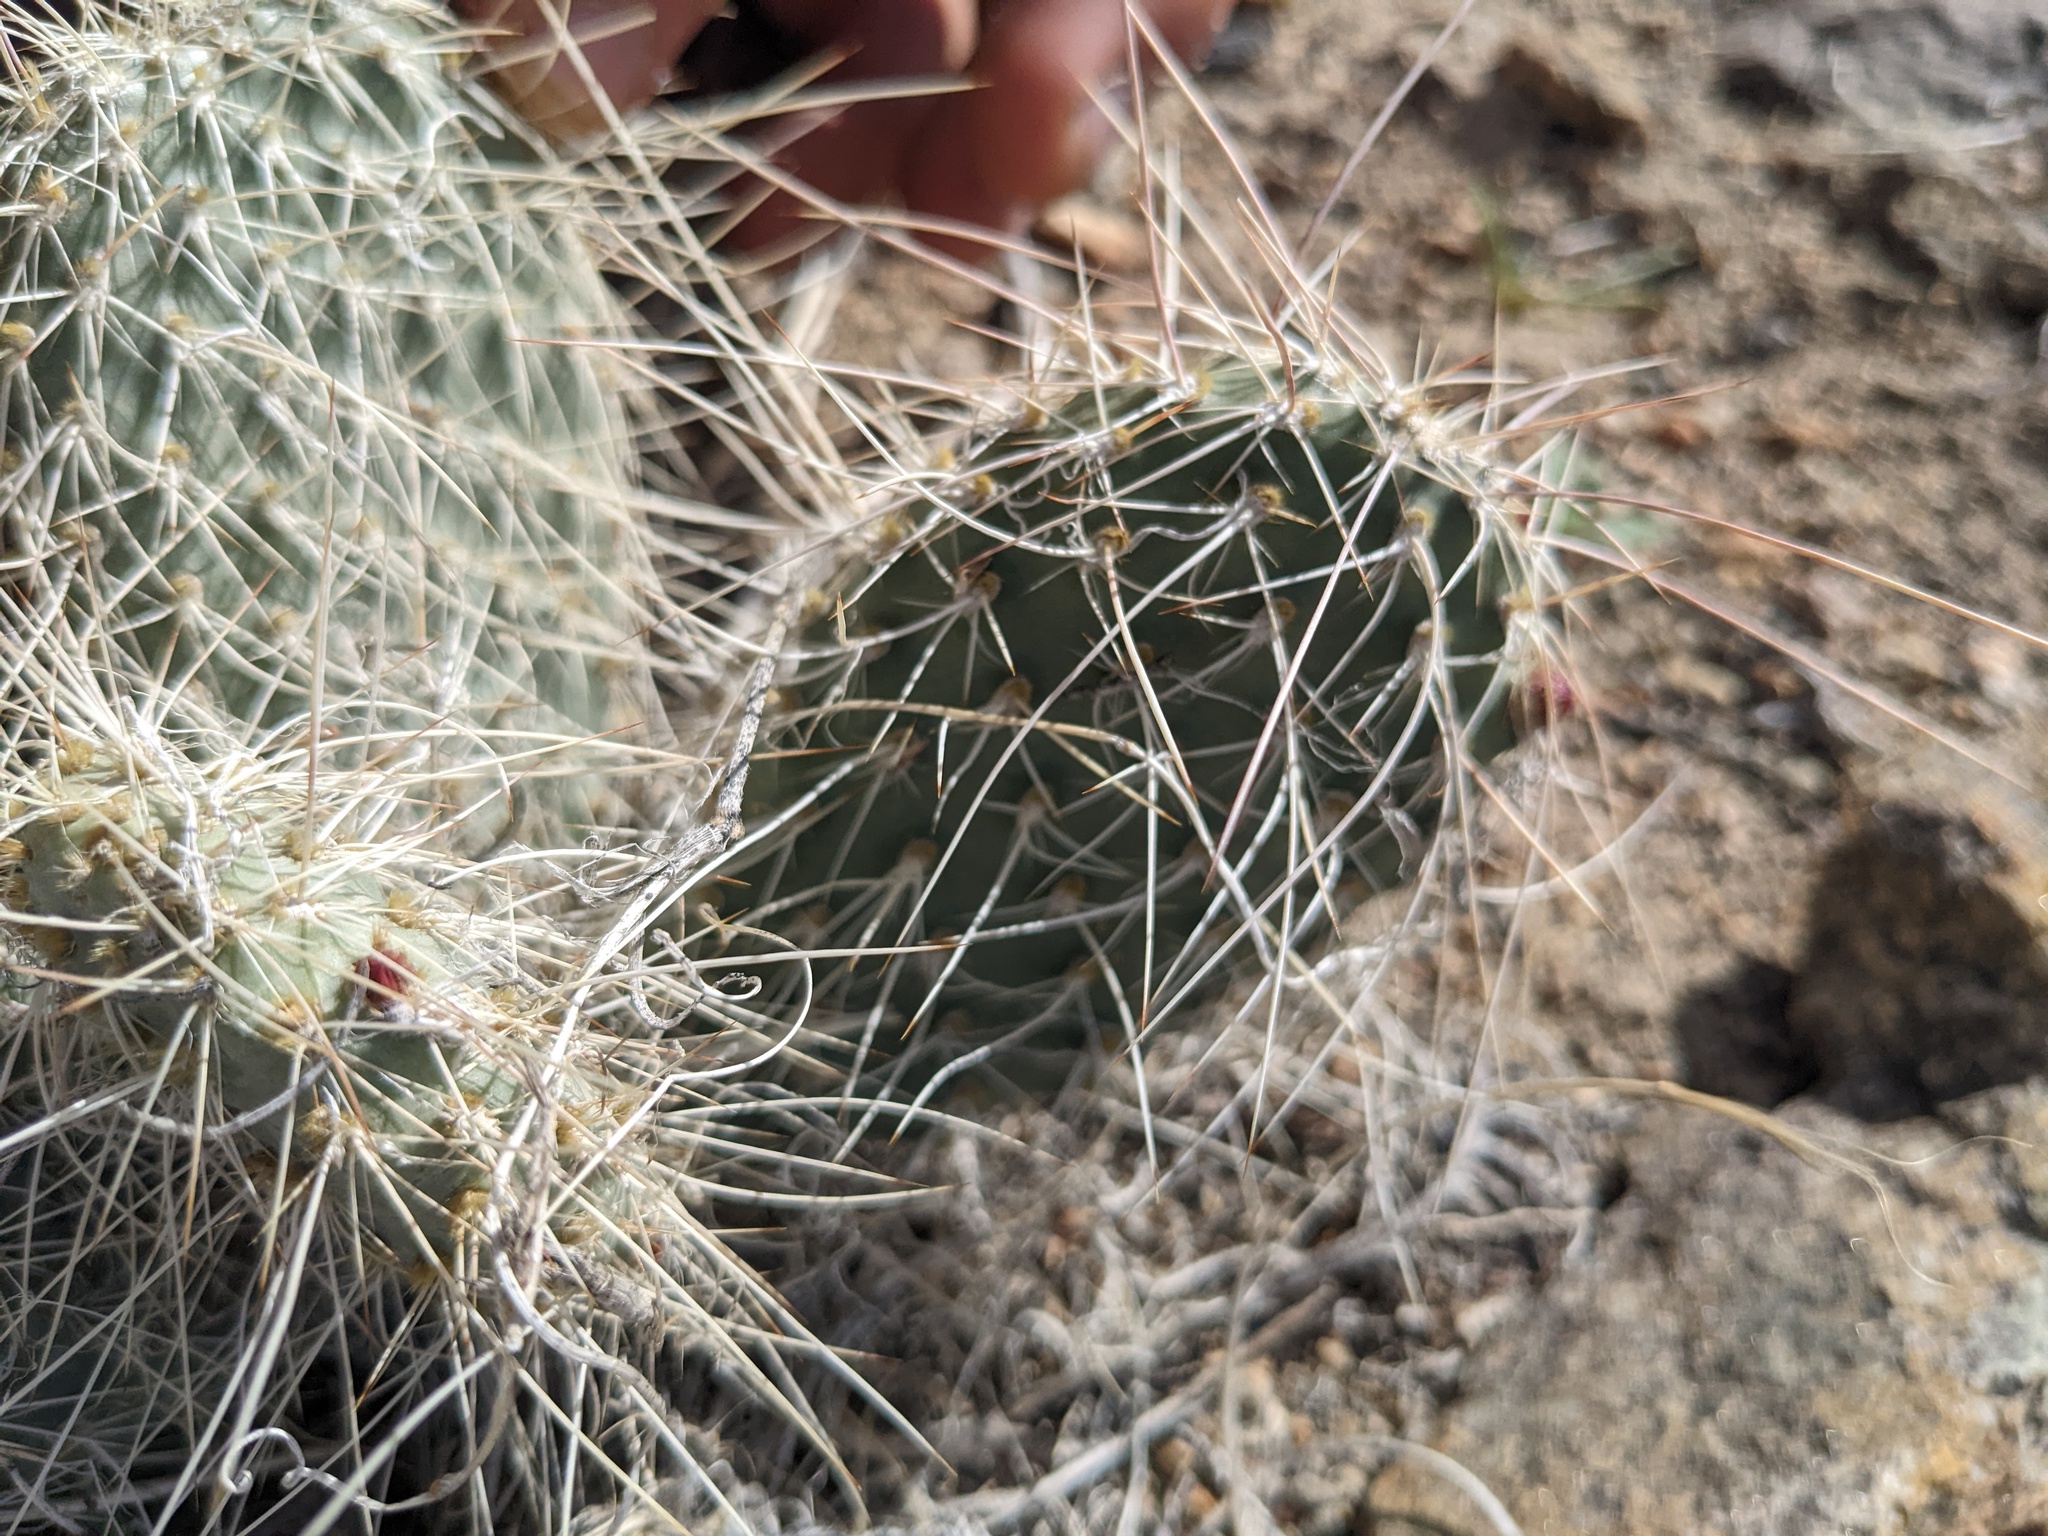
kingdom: Plantae
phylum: Tracheophyta
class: Magnoliopsida
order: Caryophyllales
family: Cactaceae
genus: Opuntia
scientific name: Opuntia polyacantha
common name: Plains prickly-pear
